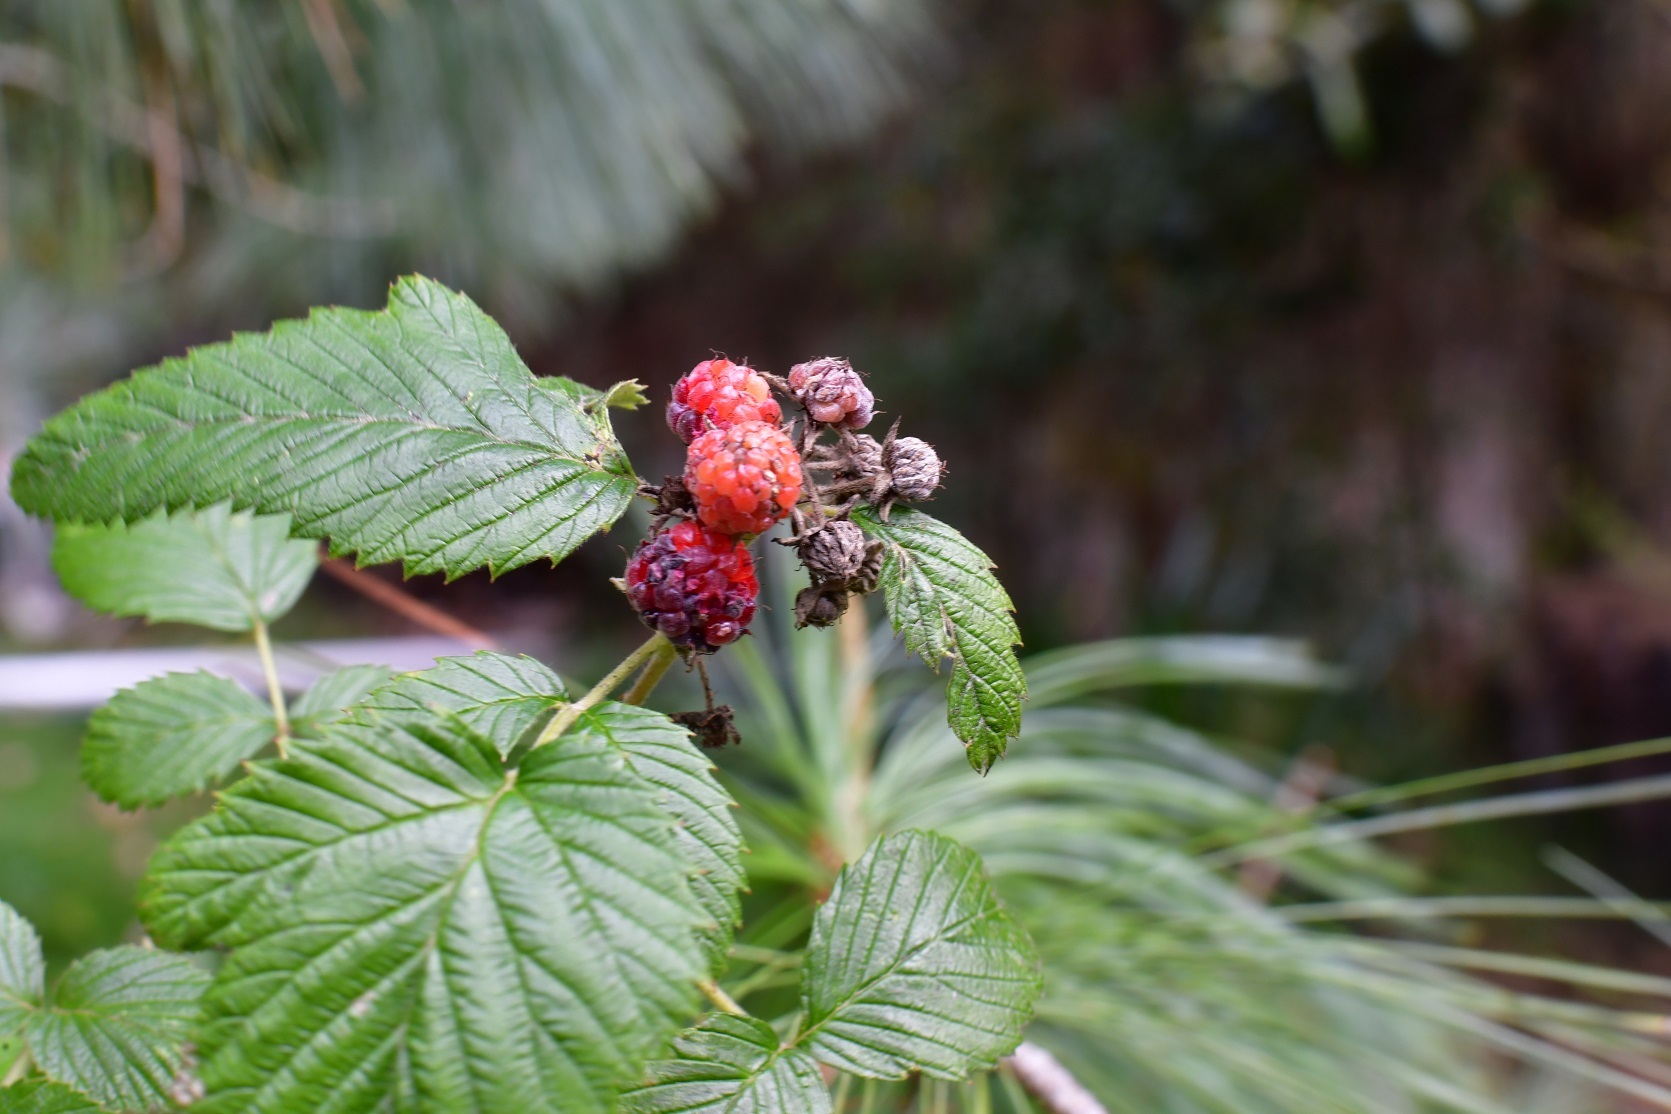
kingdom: Plantae
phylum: Tracheophyta
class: Magnoliopsida
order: Rosales
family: Rosaceae
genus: Rubus
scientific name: Rubus niveus
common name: Snowpeaks raspberry
